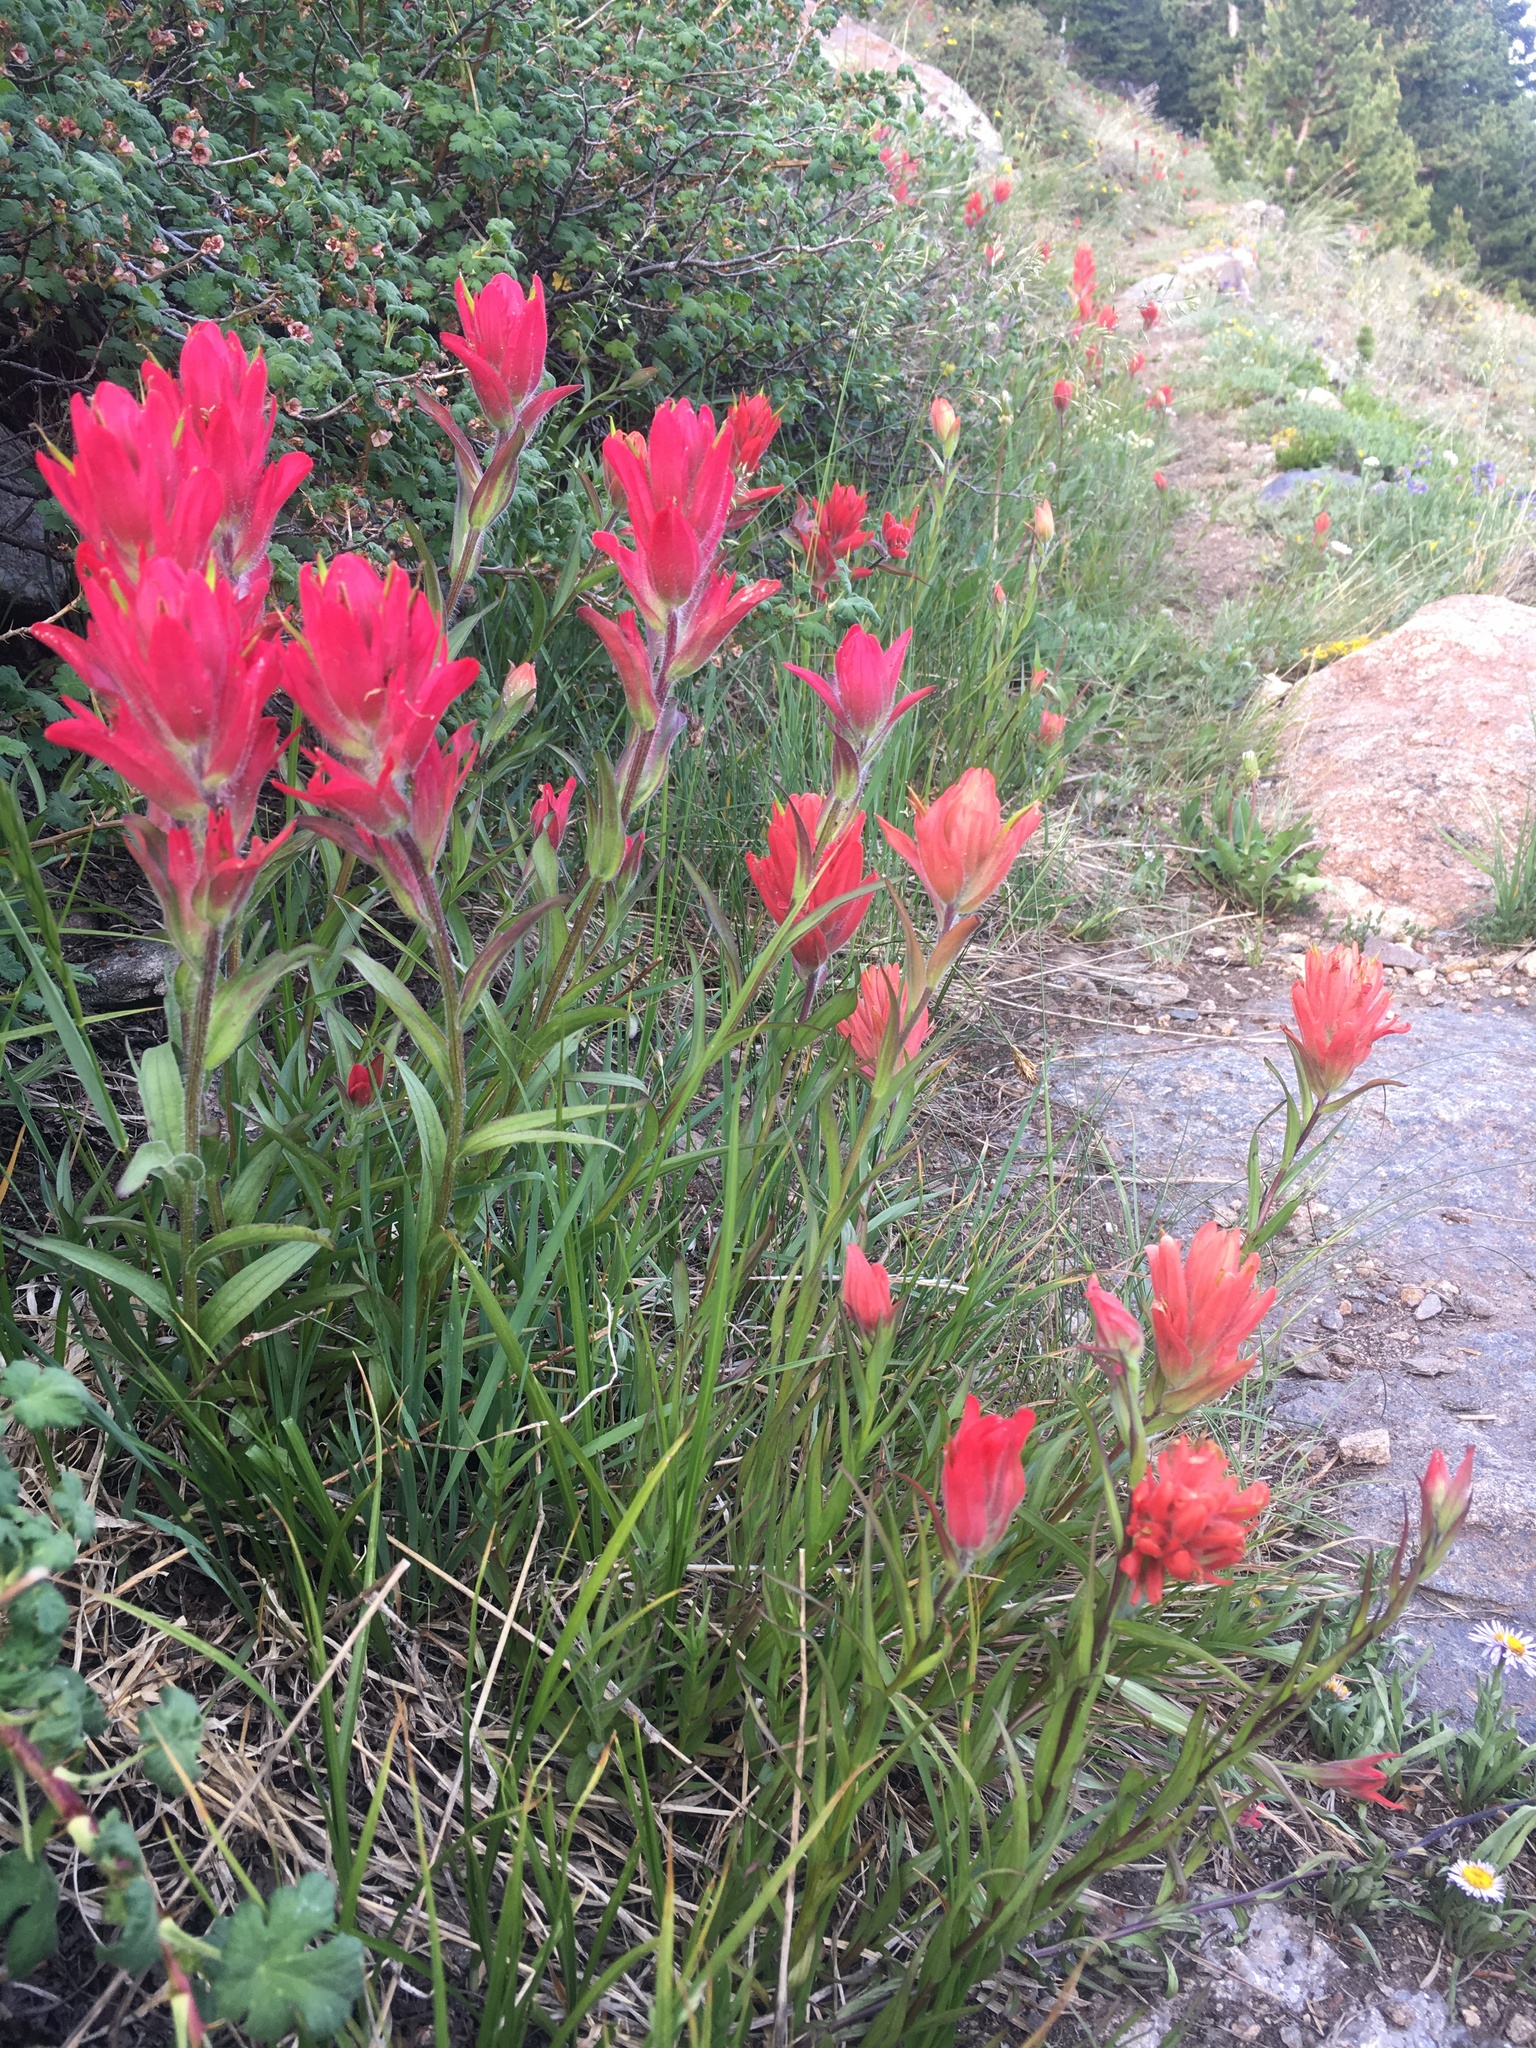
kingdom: Plantae
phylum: Tracheophyta
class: Magnoliopsida
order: Lamiales
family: Orobanchaceae
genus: Castilleja
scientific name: Castilleja rhexifolia
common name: Rocky mountain paintbrush
